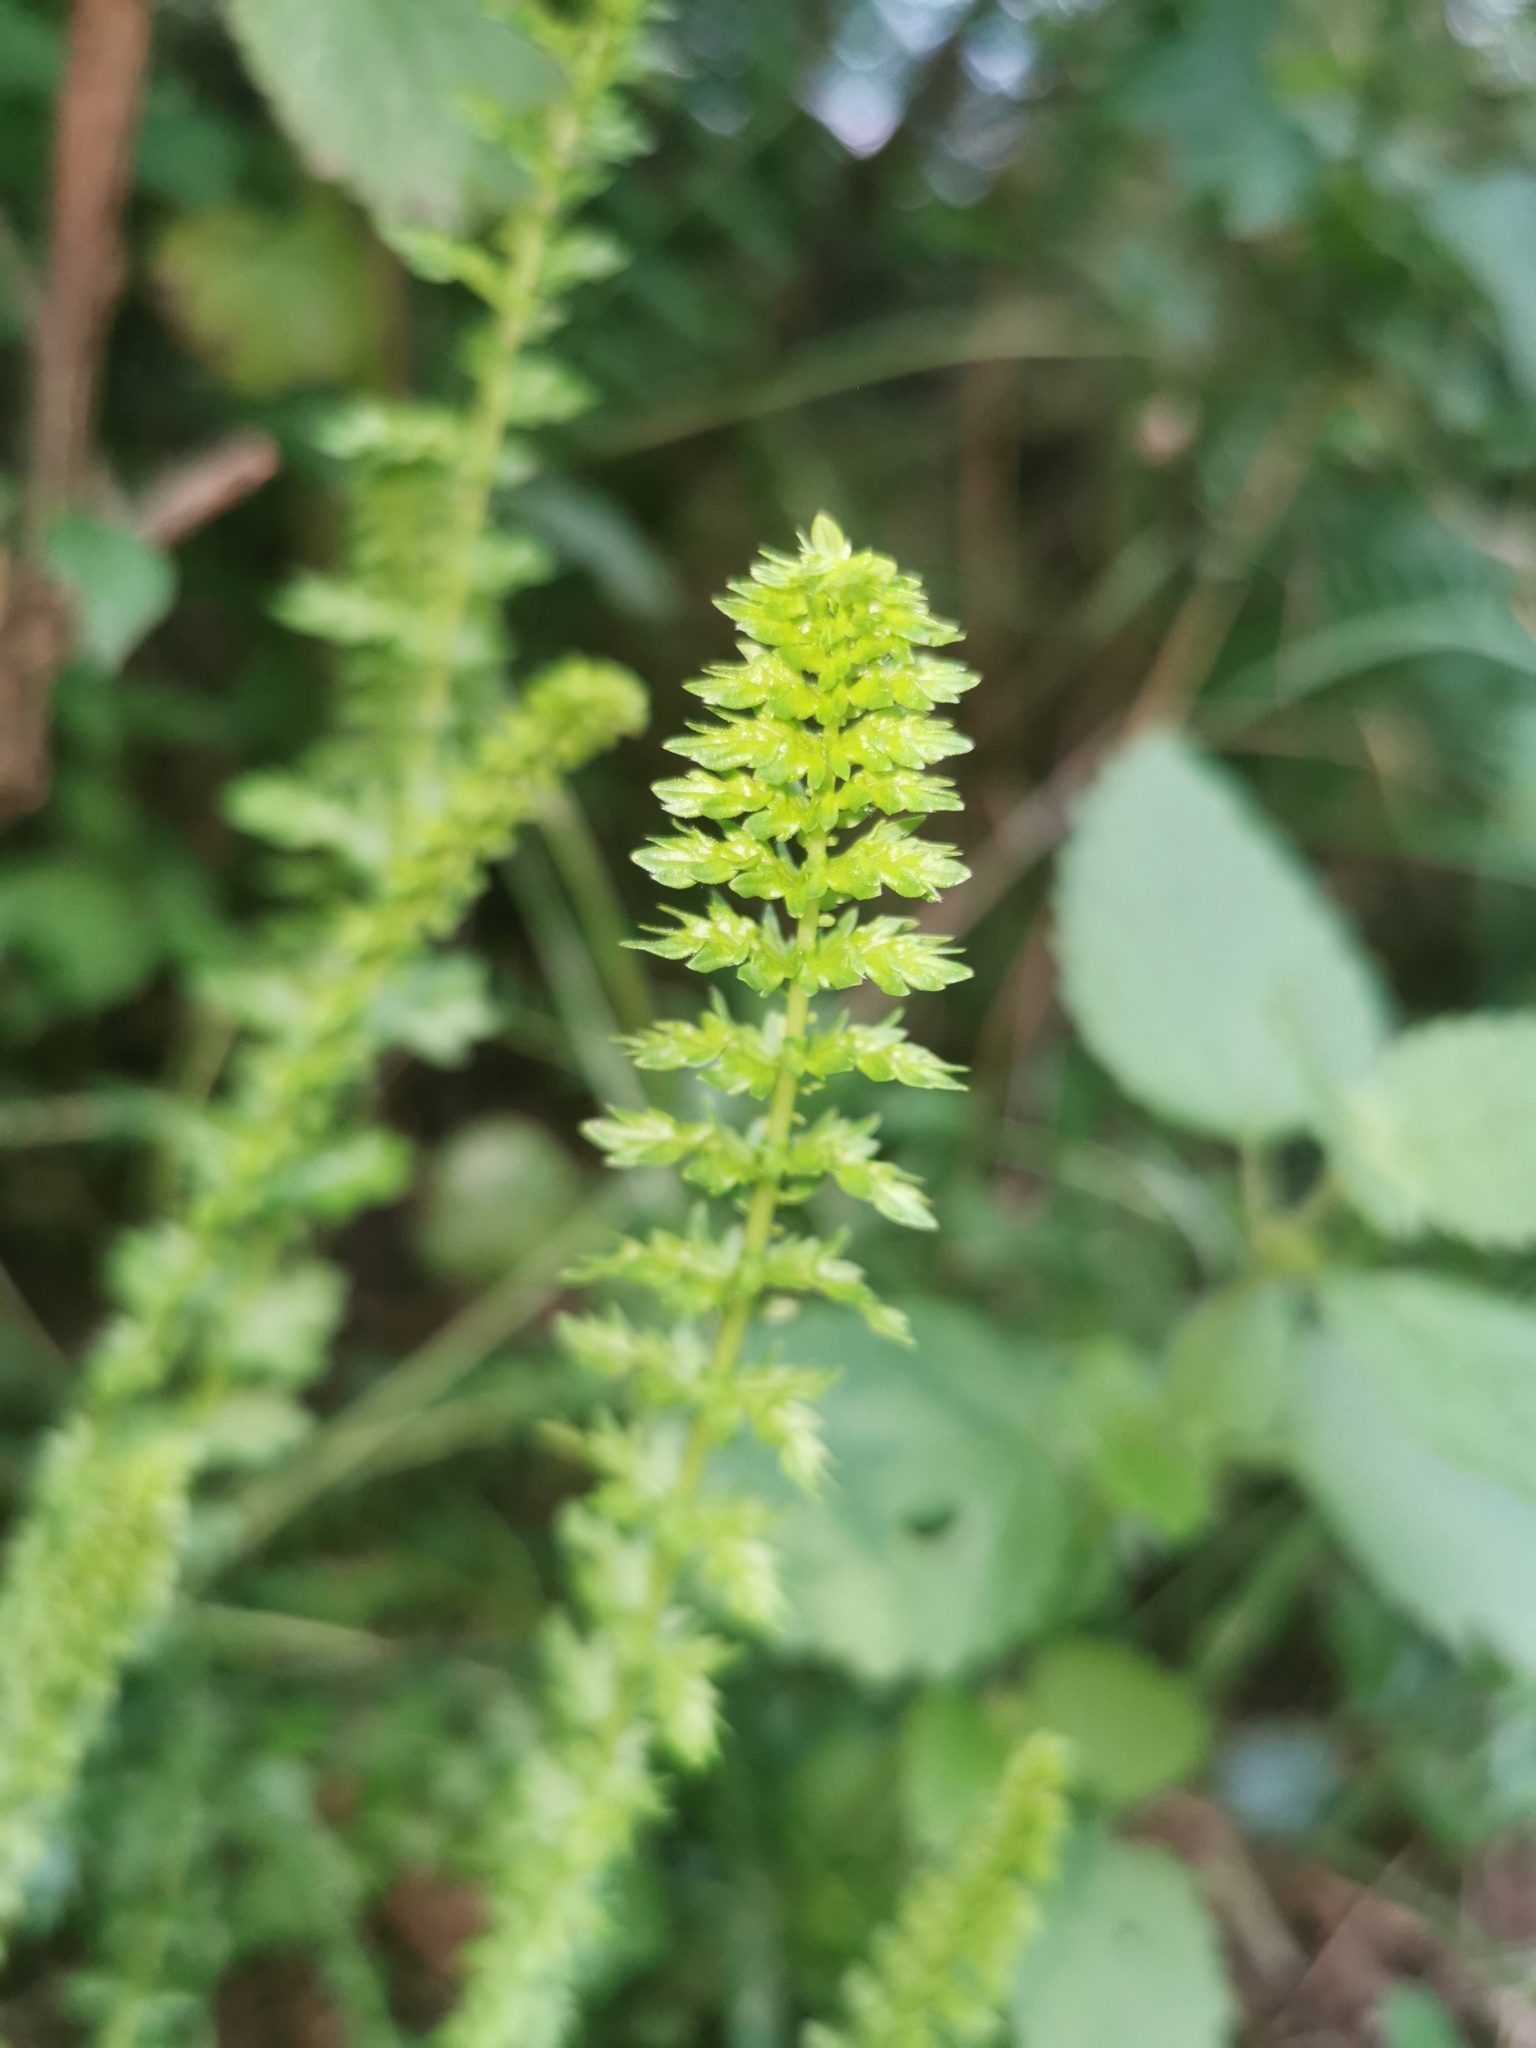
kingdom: Plantae
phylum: Tracheophyta
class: Magnoliopsida
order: Rosales
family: Rosaceae
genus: Filipendula
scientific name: Filipendula vulgaris
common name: Dropwort
